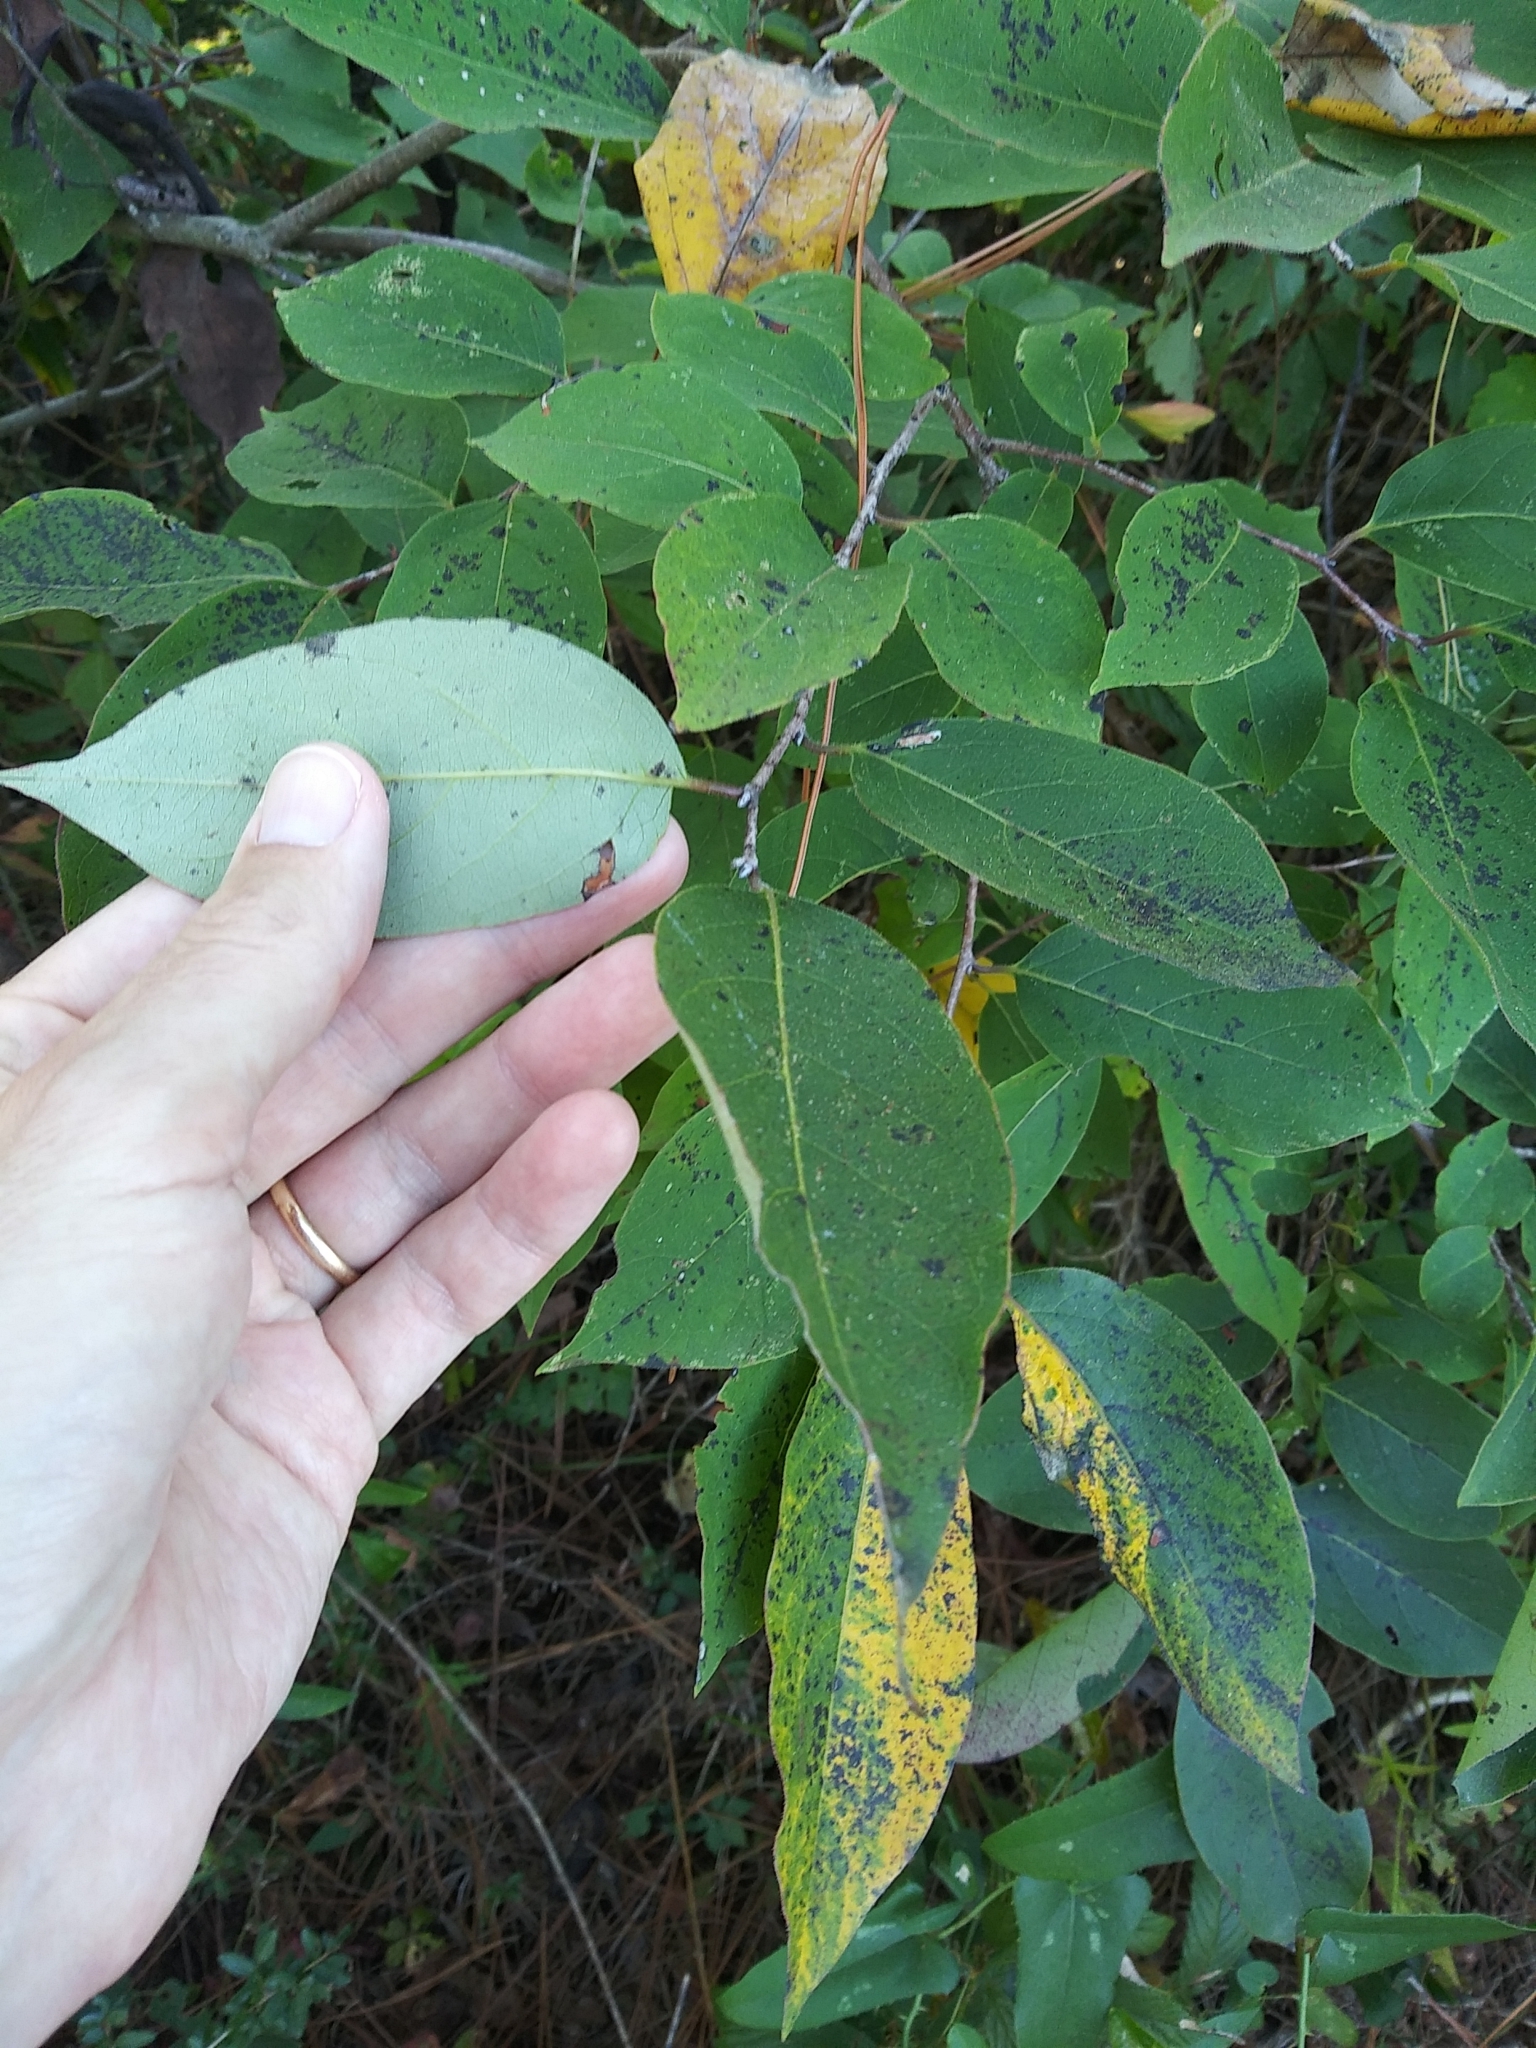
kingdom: Plantae
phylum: Tracheophyta
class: Magnoliopsida
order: Ericales
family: Ebenaceae
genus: Diospyros
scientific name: Diospyros virginiana
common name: Persimmon
